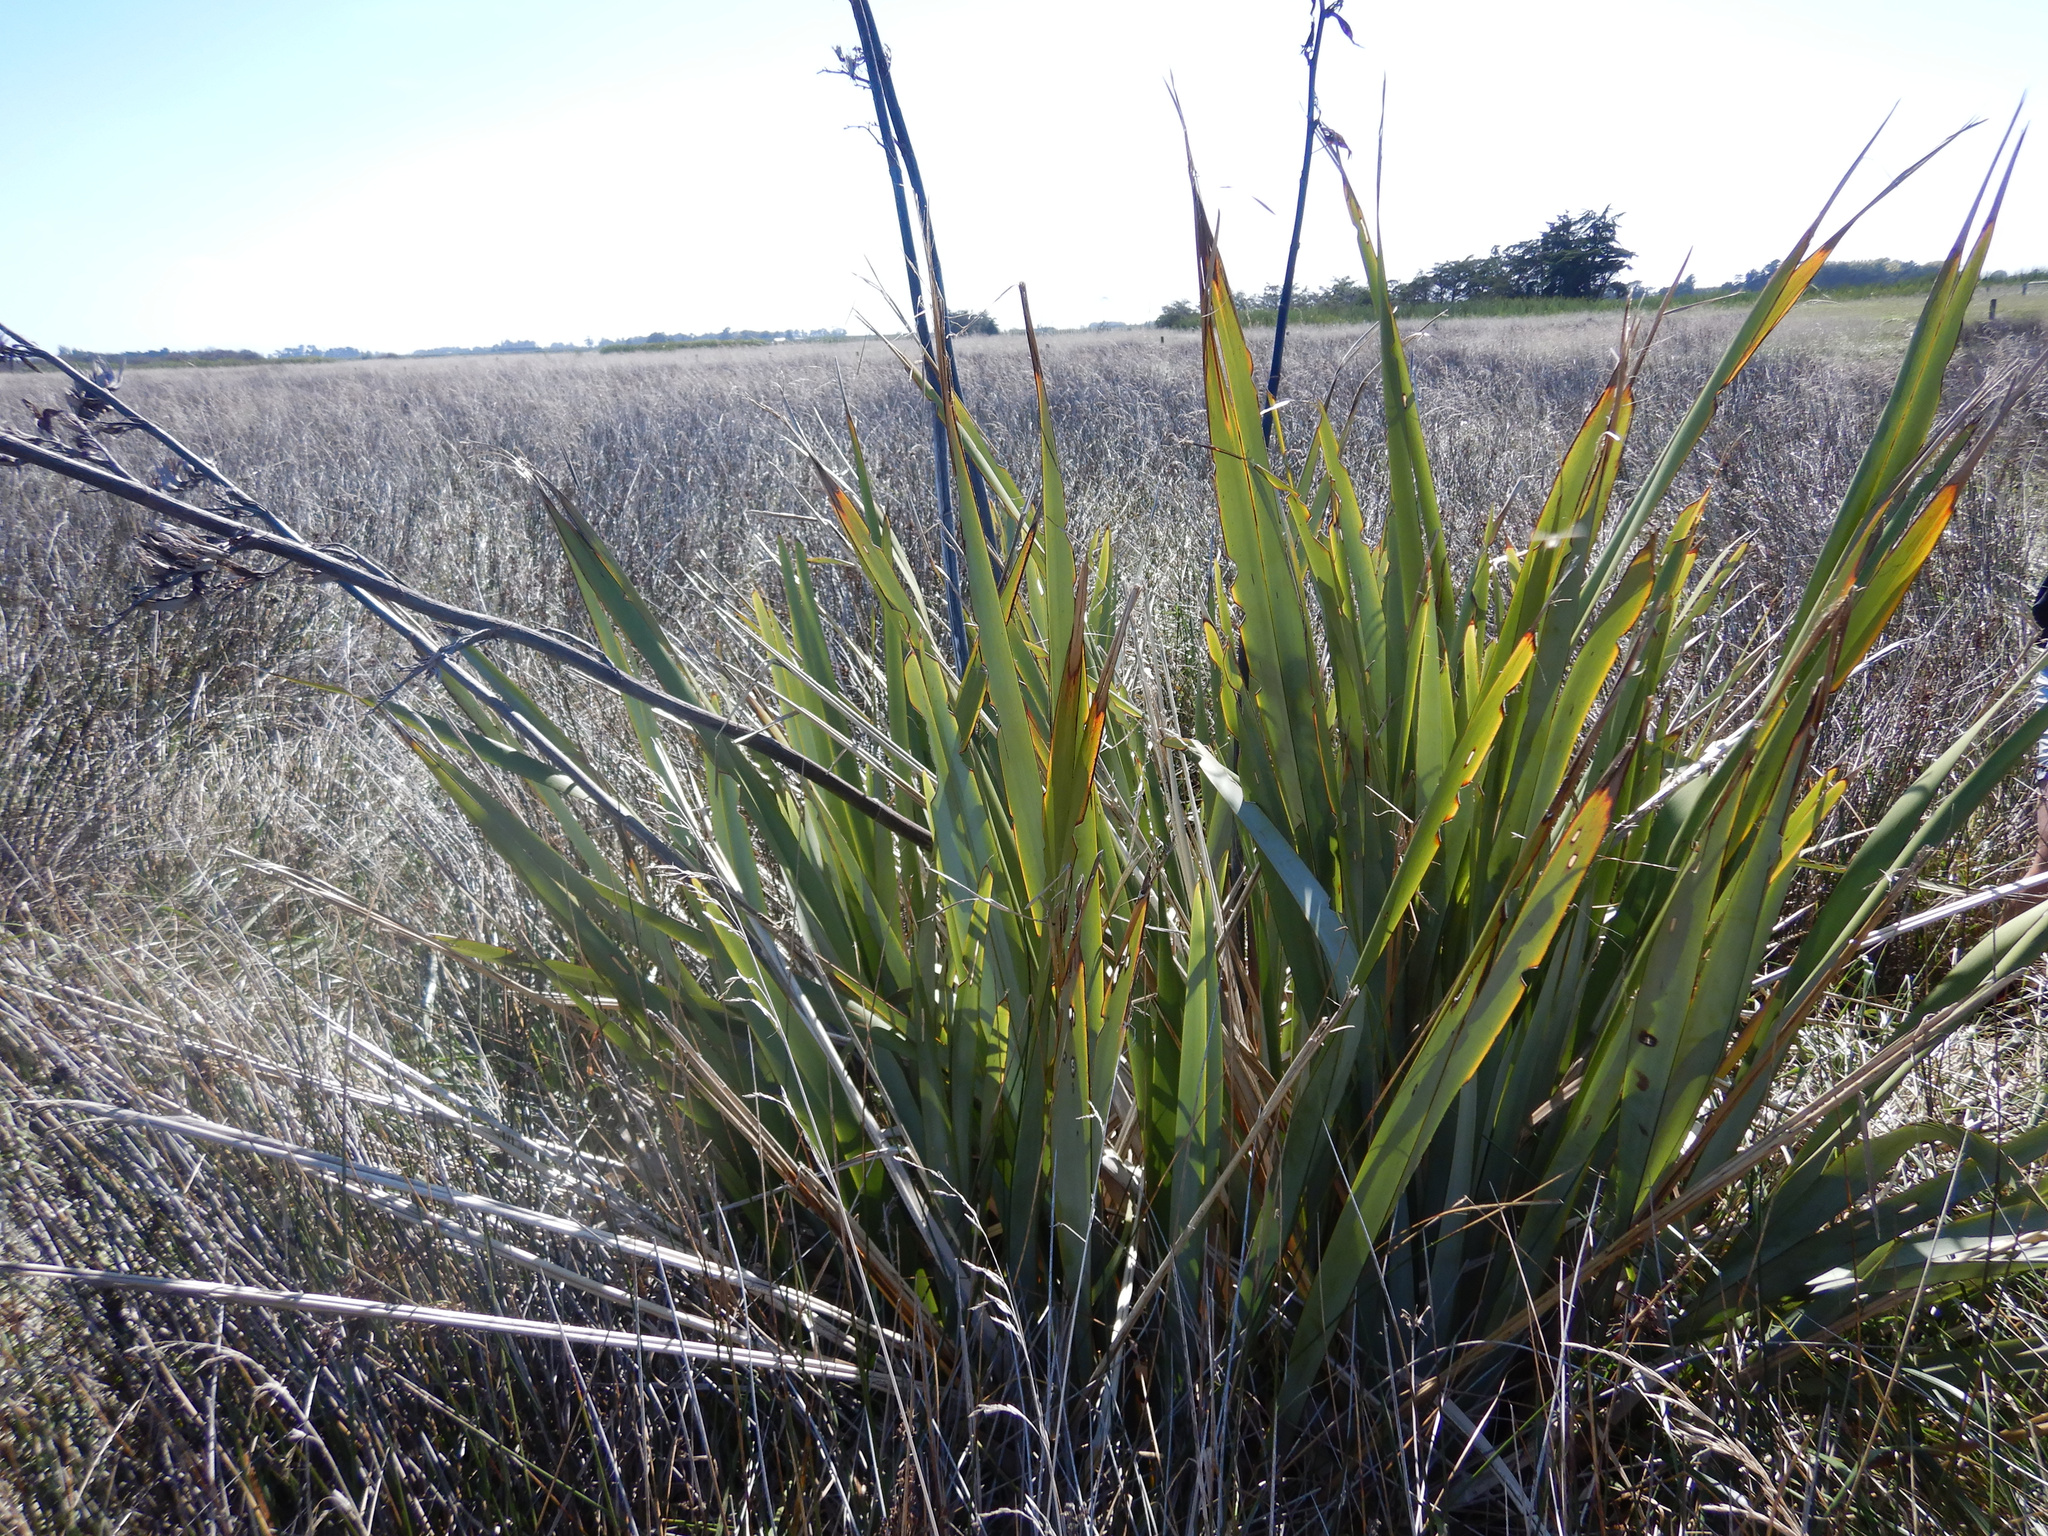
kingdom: Plantae
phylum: Tracheophyta
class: Liliopsida
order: Asparagales
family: Asphodelaceae
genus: Phormium
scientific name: Phormium tenax
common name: New zealand flax
